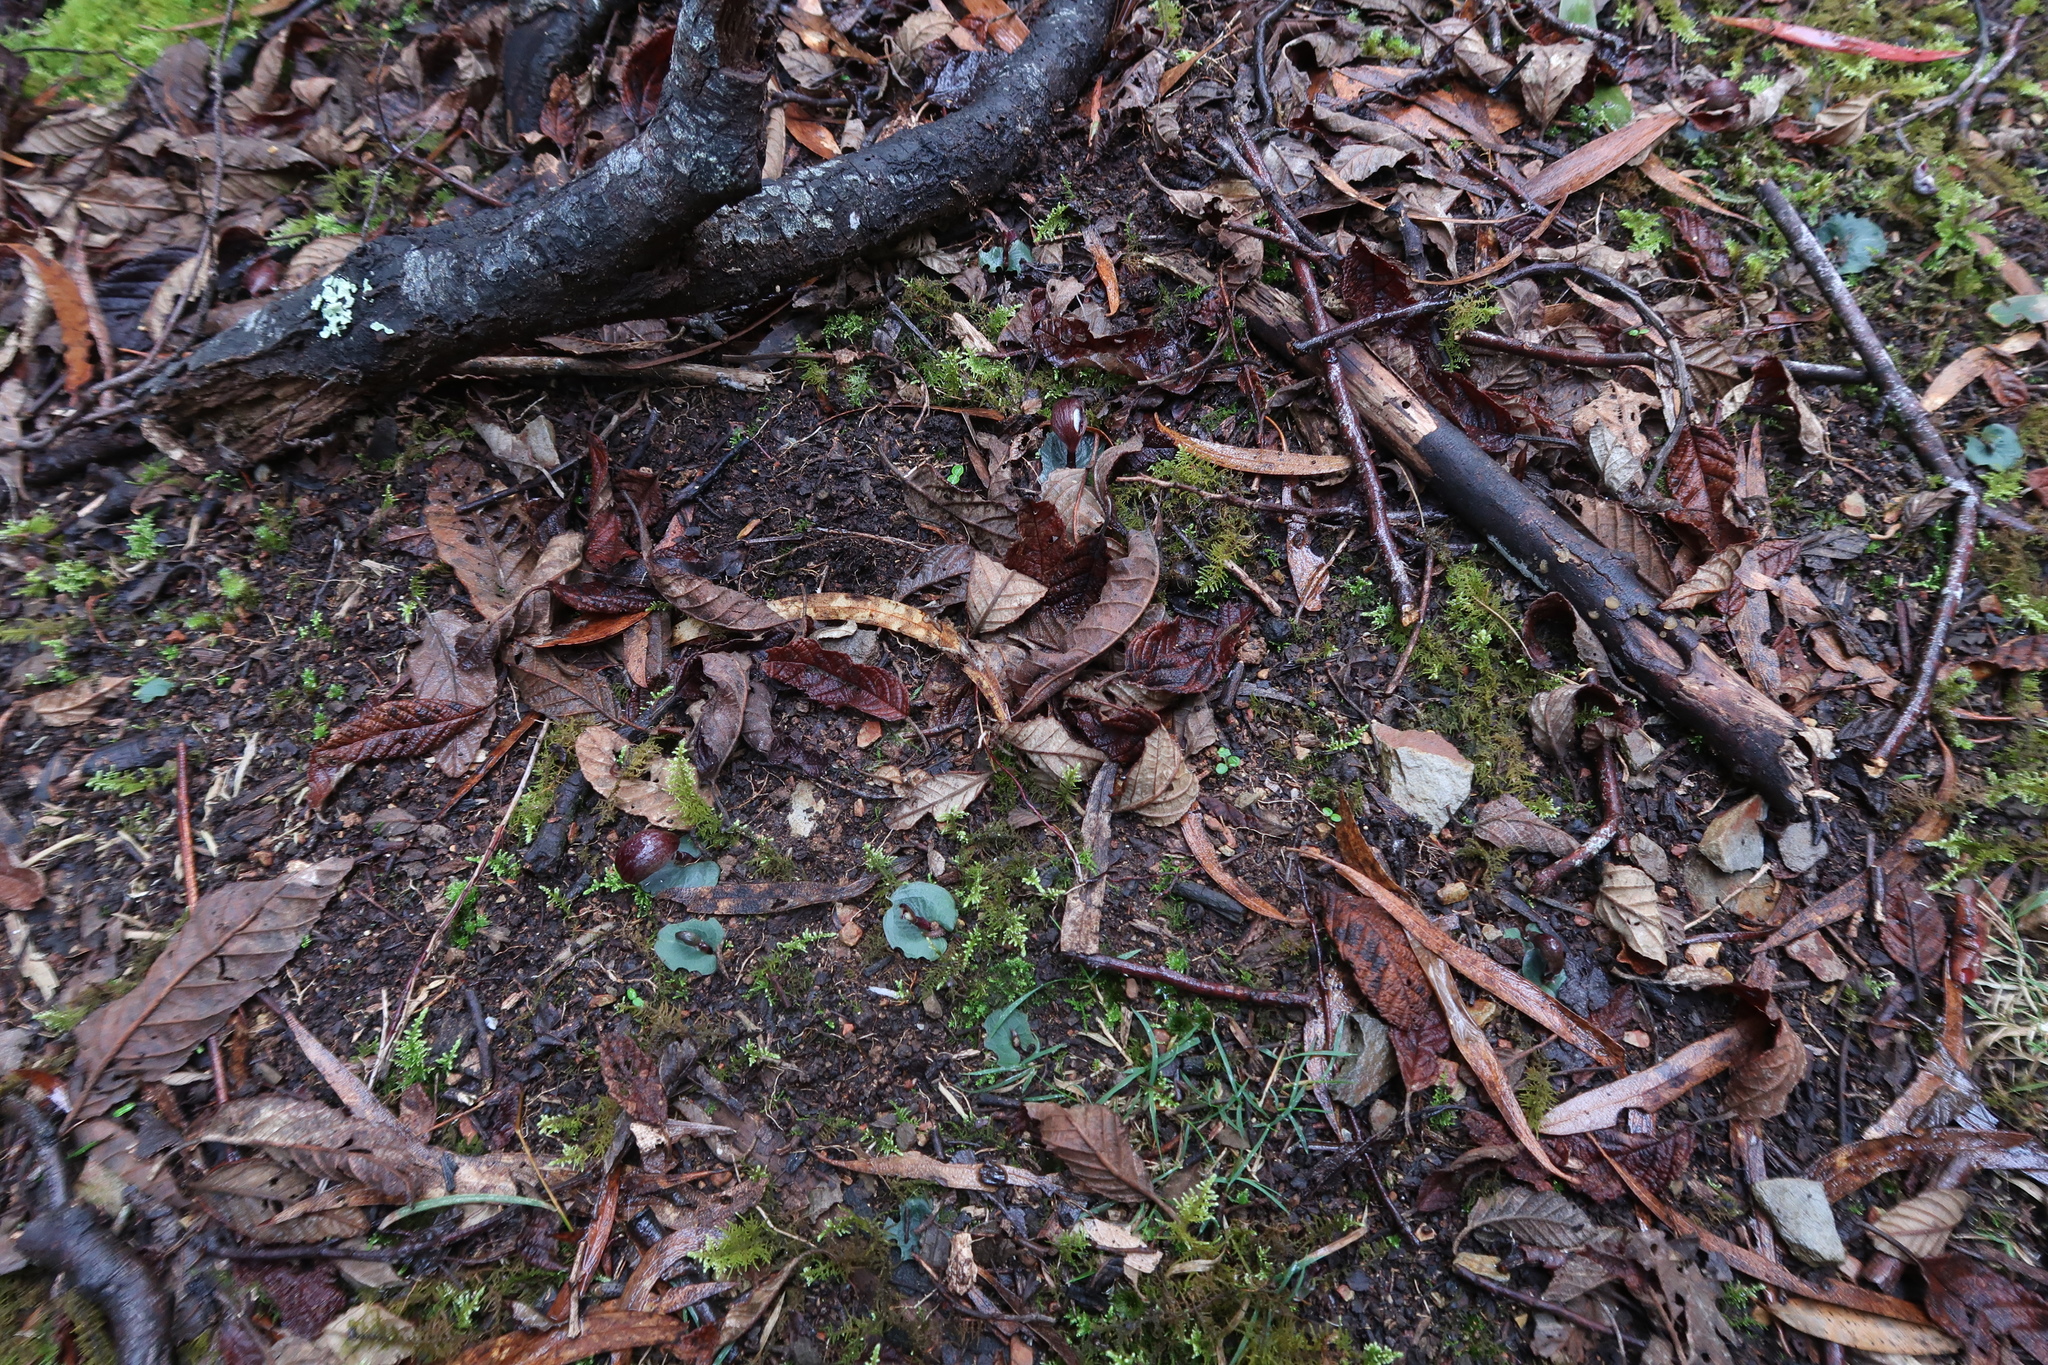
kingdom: Plantae
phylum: Tracheophyta
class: Liliopsida
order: Asparagales
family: Orchidaceae
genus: Corybas
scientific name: Corybas aconitiflorus
